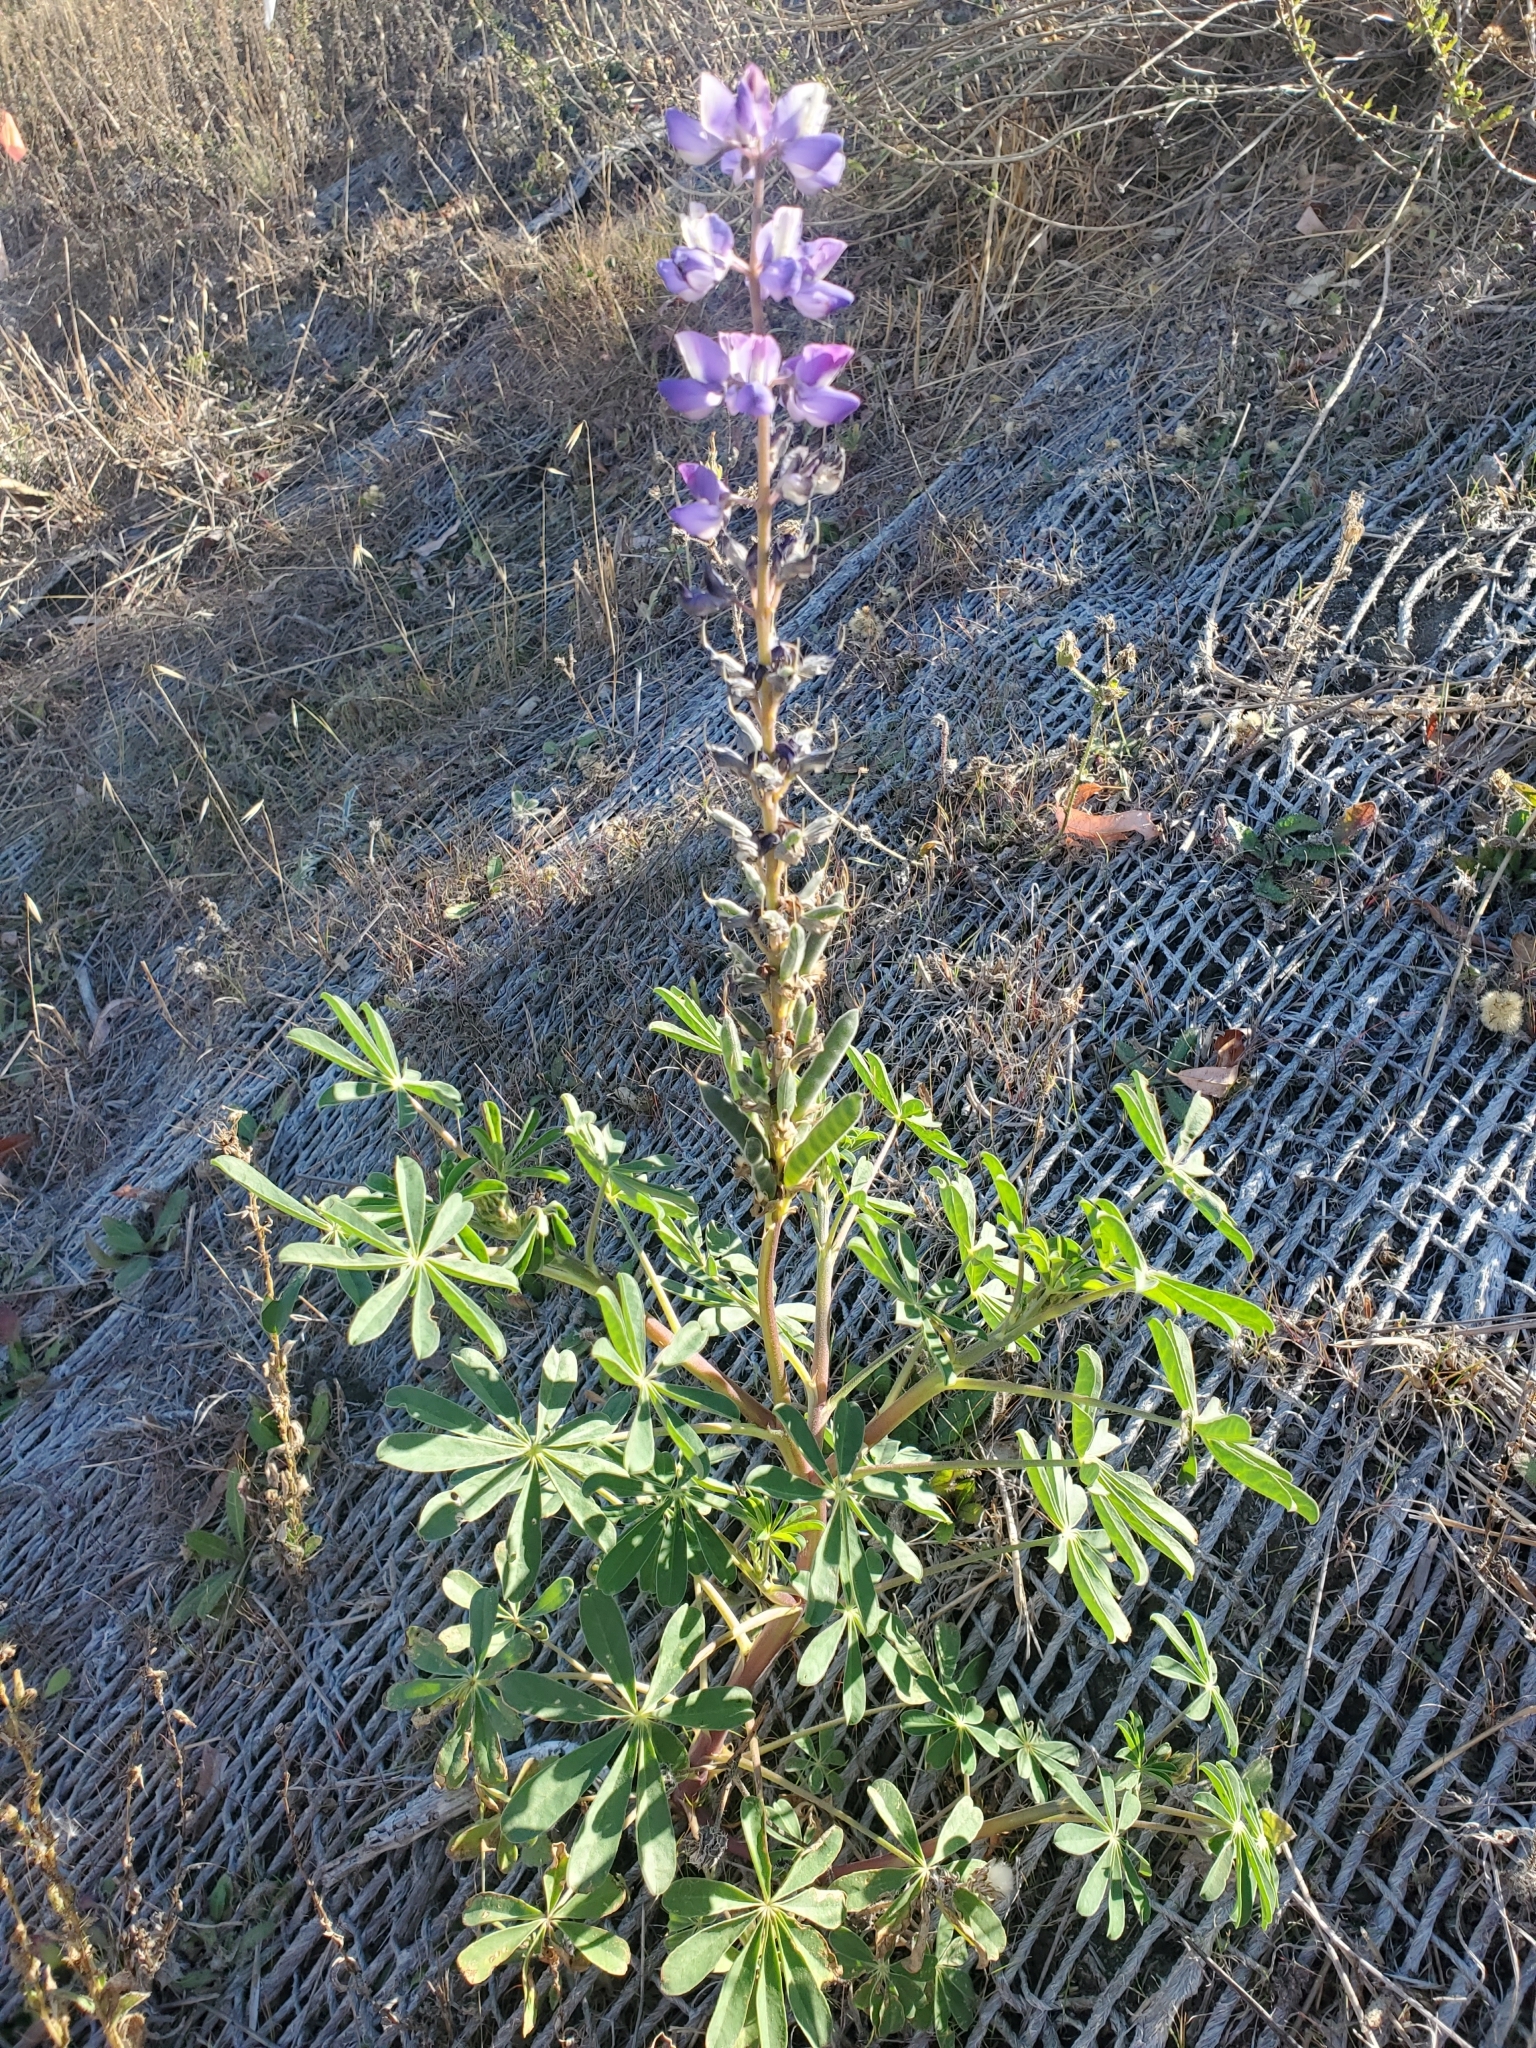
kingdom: Plantae
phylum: Tracheophyta
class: Magnoliopsida
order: Fabales
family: Fabaceae
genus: Lupinus
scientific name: Lupinus succulentus
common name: Arroyo lupine
